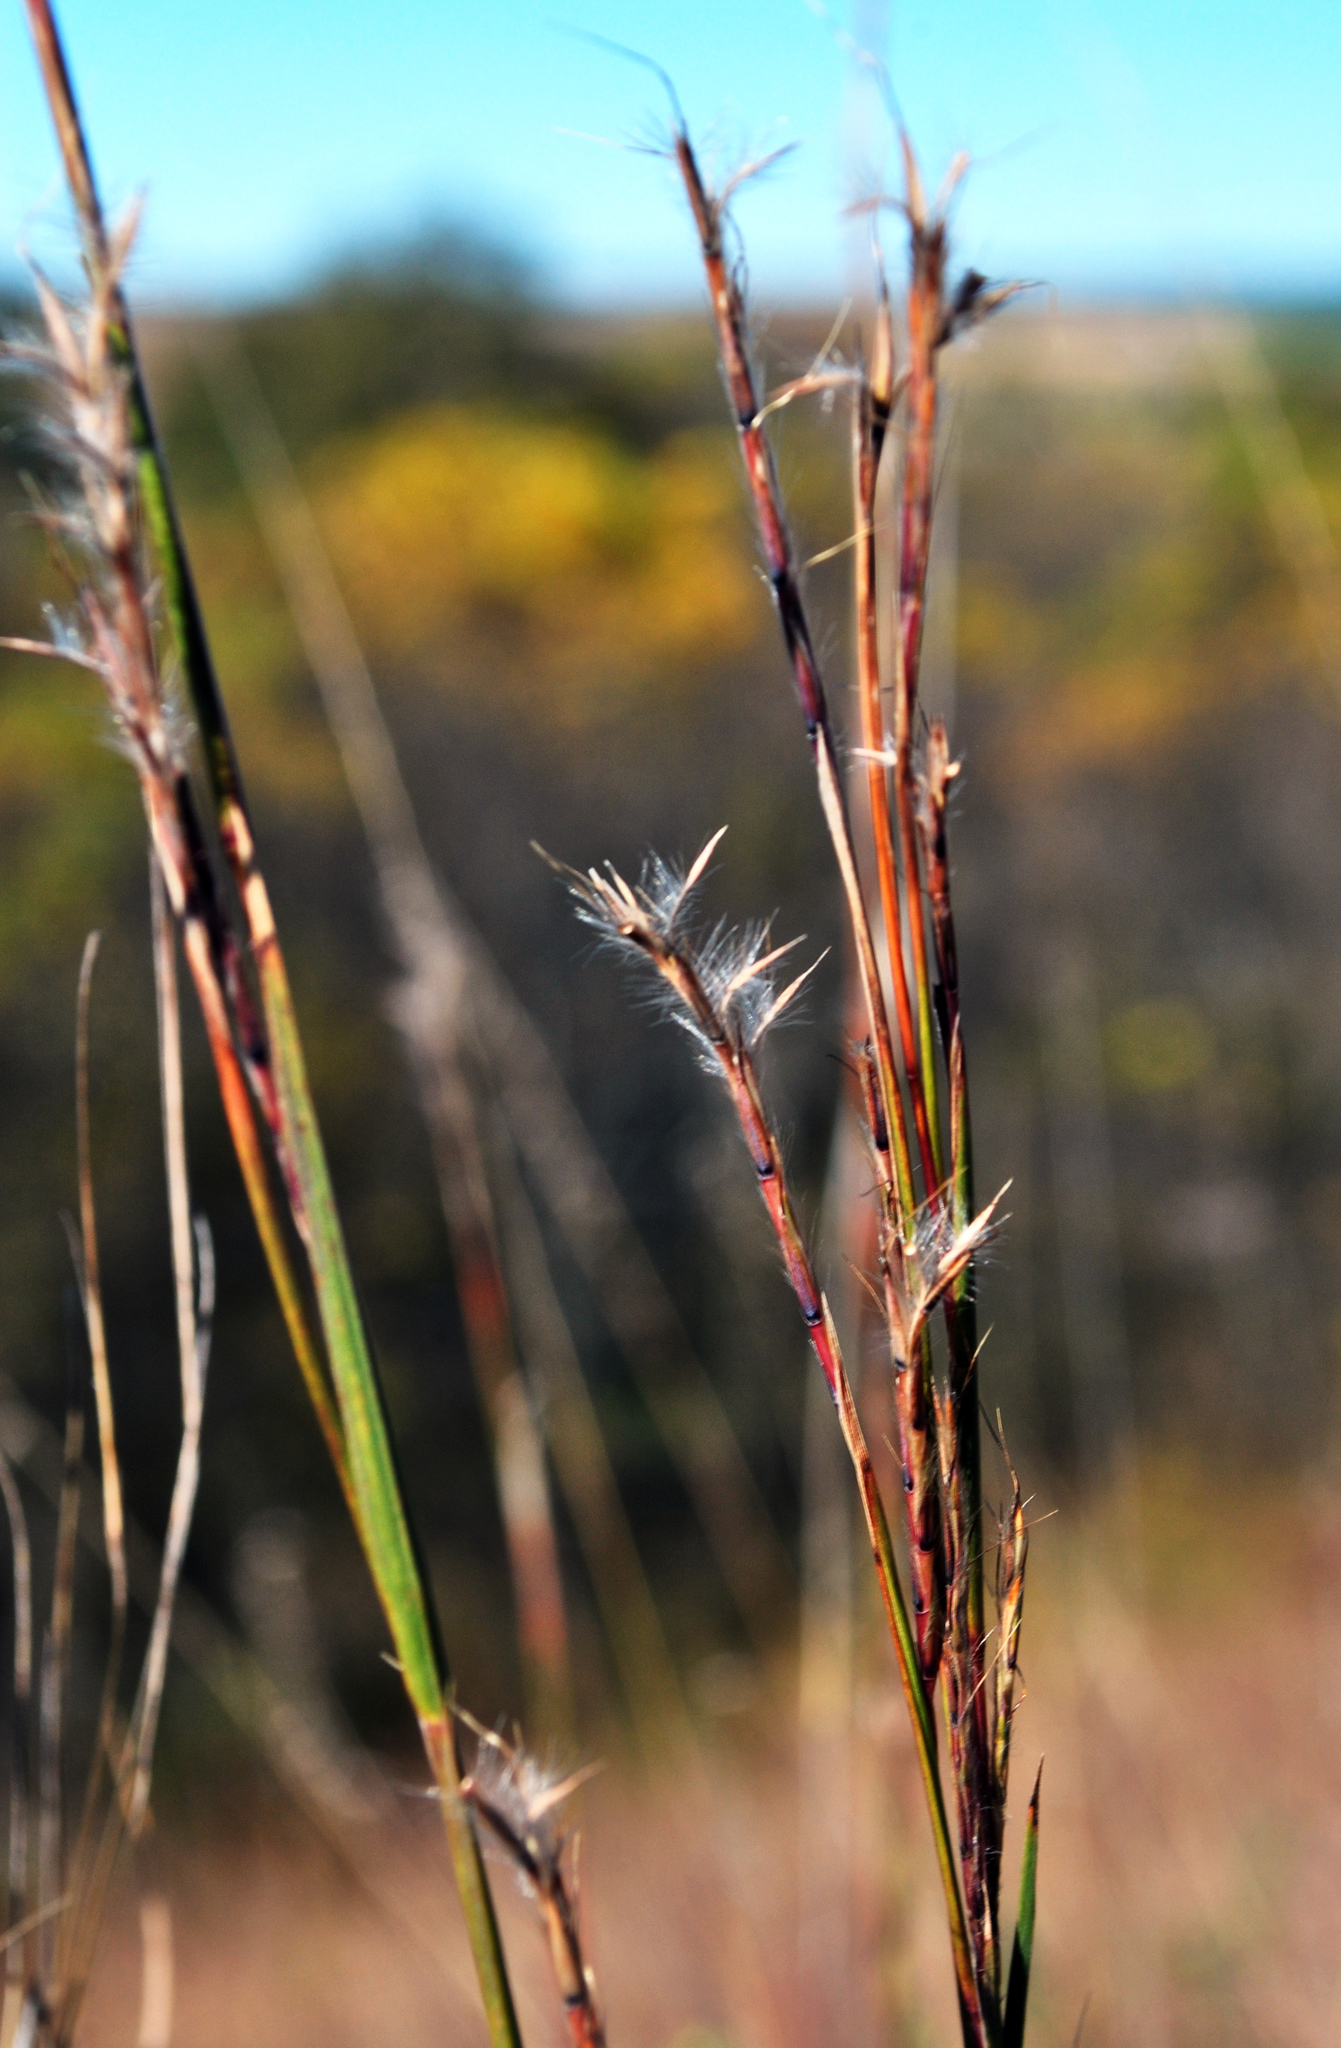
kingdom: Plantae
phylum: Tracheophyta
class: Liliopsida
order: Poales
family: Poaceae
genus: Schizachyrium
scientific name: Schizachyrium scoparium
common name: Little bluestem
